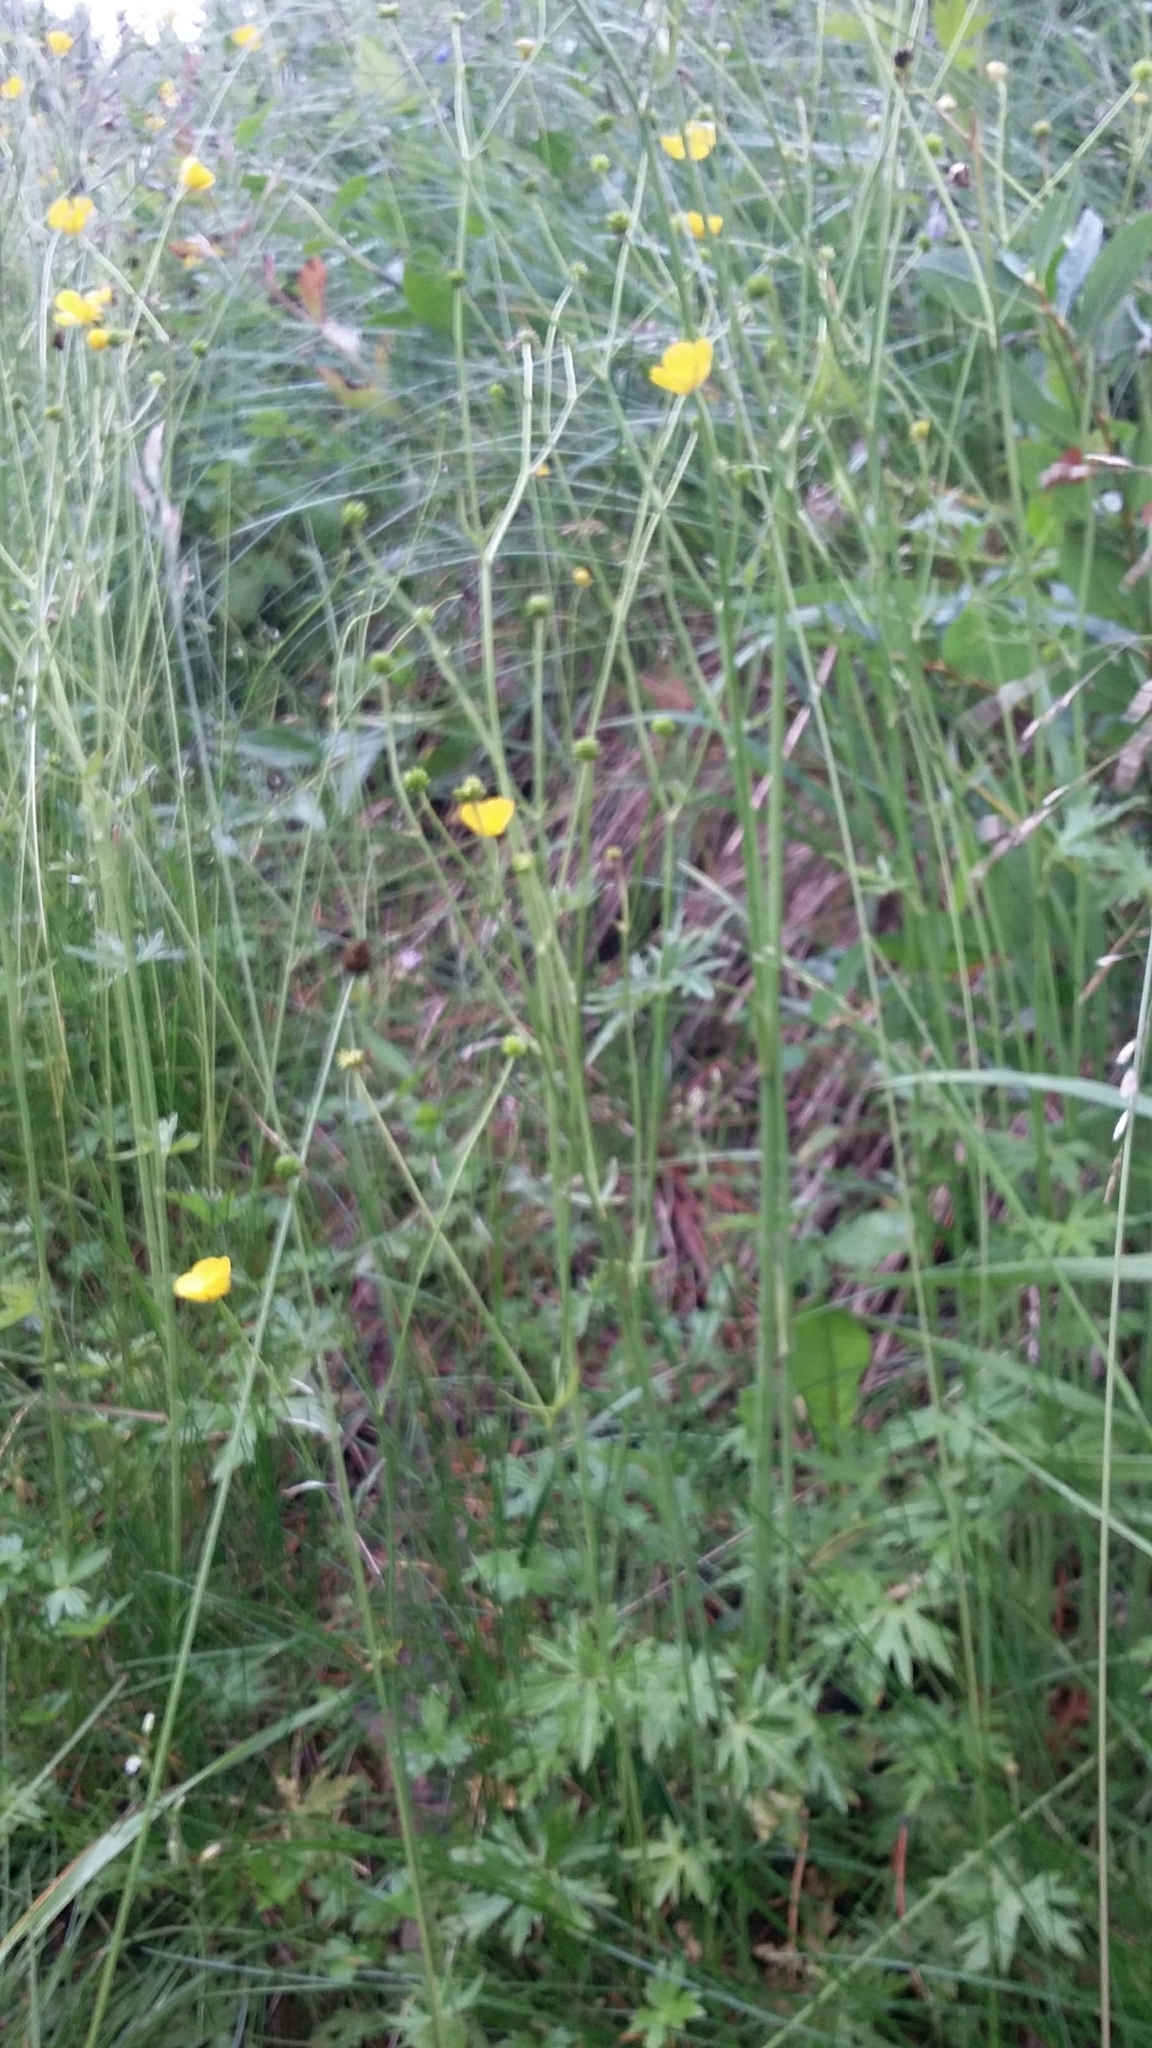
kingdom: Plantae
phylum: Tracheophyta
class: Magnoliopsida
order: Ranunculales
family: Ranunculaceae
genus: Ranunculus
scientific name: Ranunculus acris
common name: Meadow buttercup
